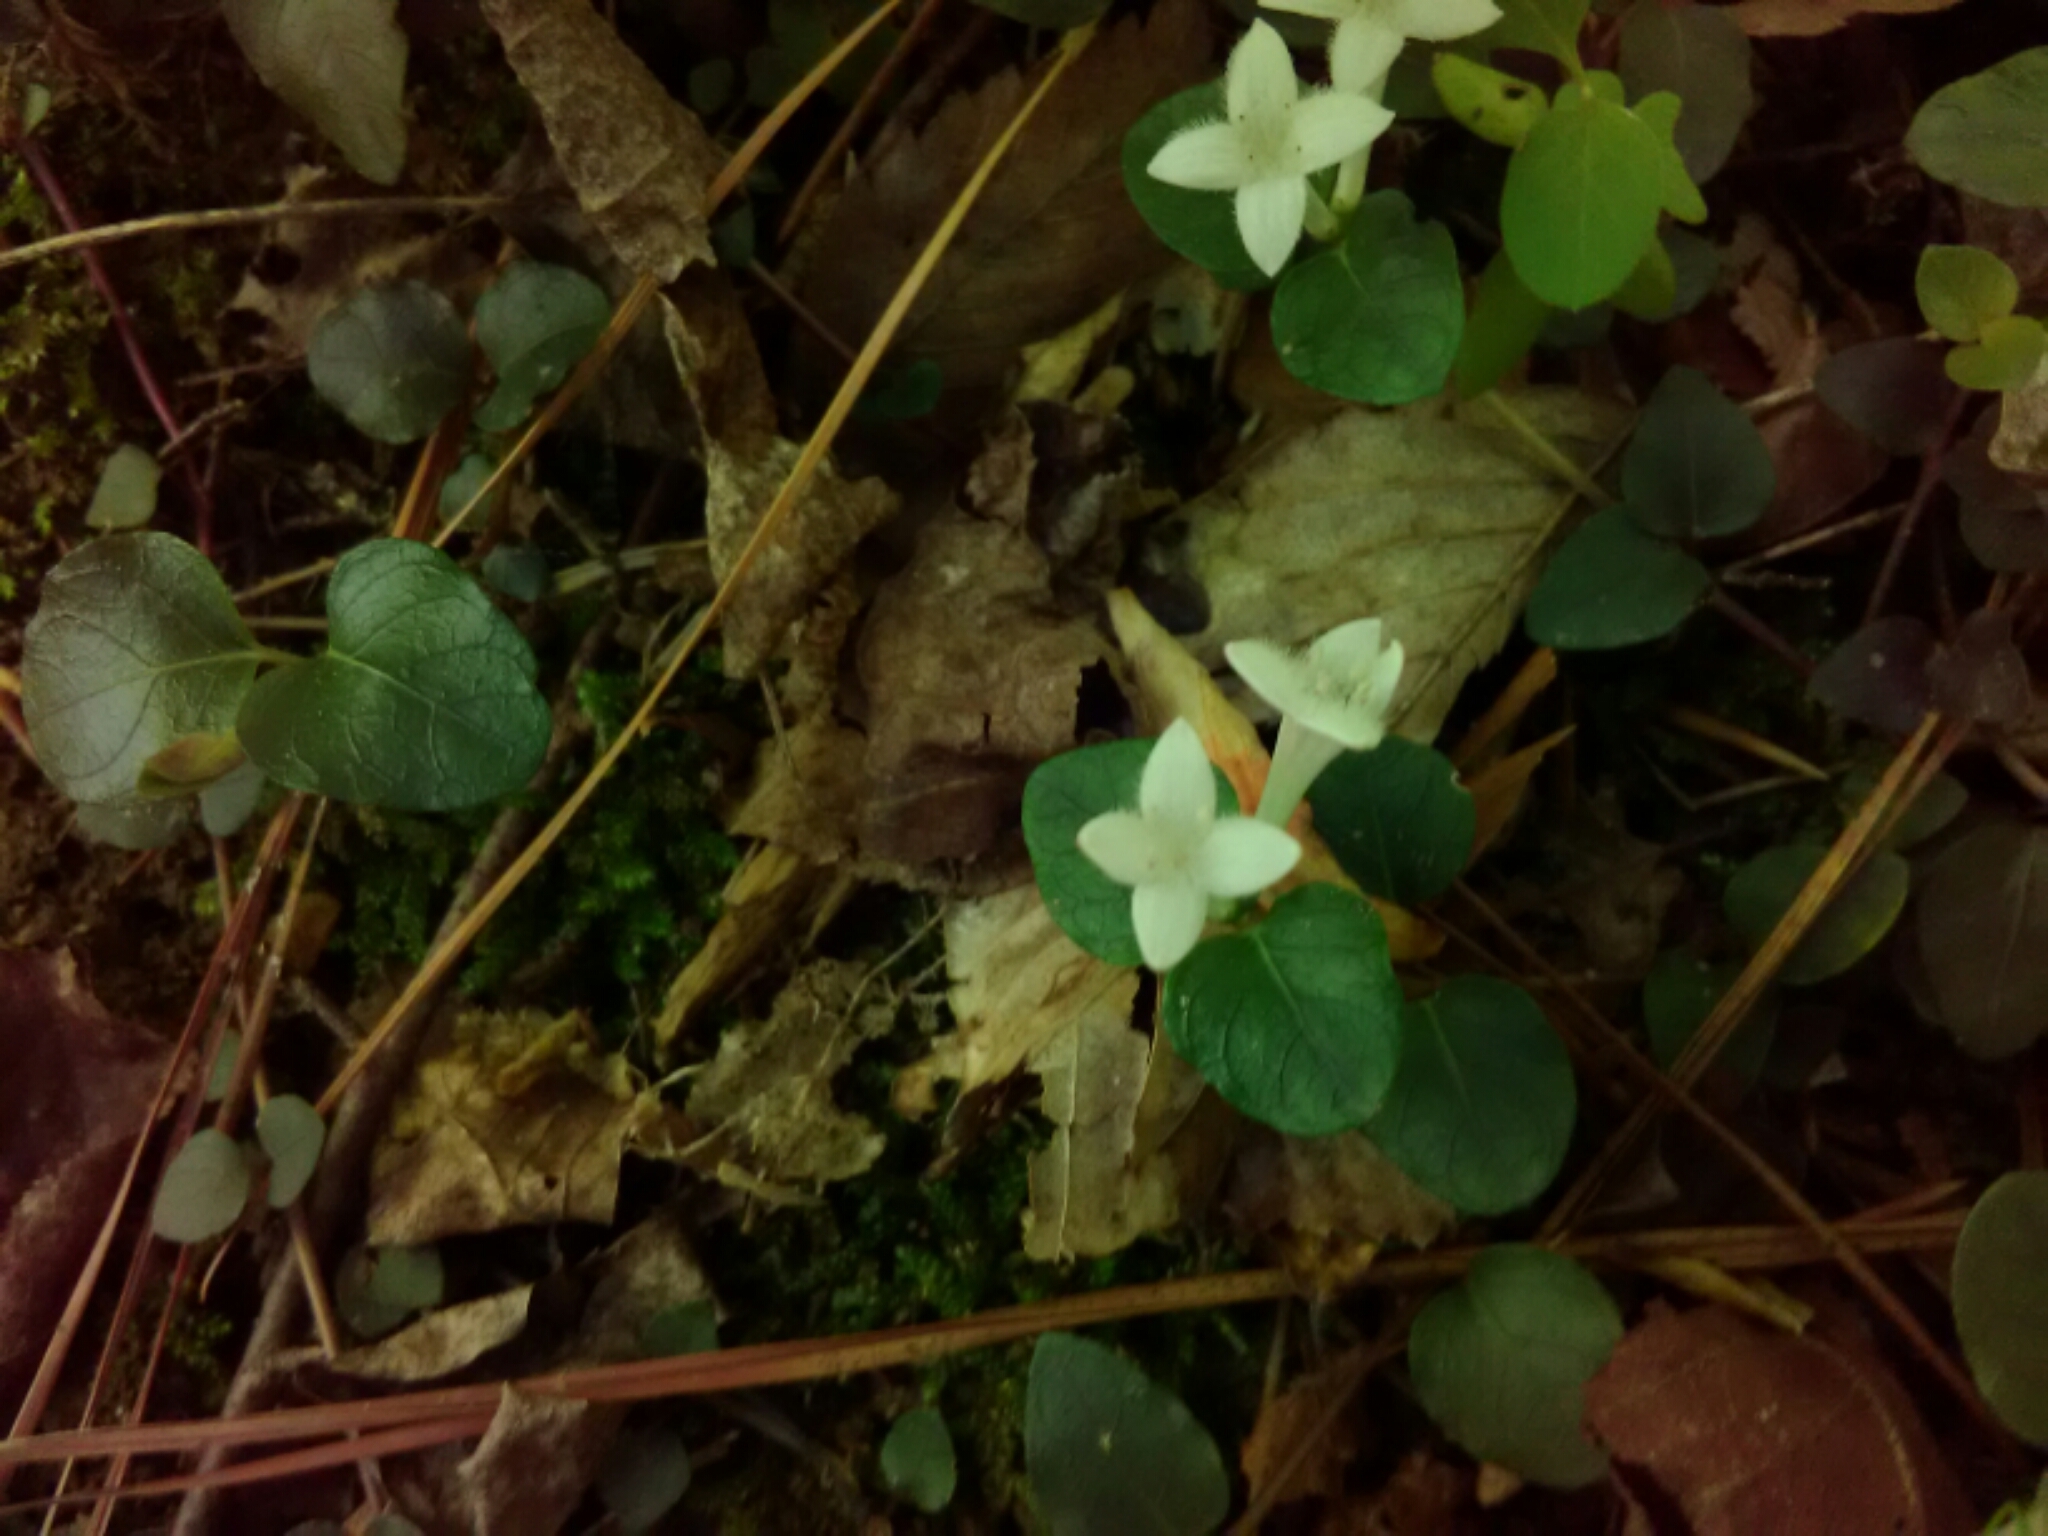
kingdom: Plantae
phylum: Tracheophyta
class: Magnoliopsida
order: Gentianales
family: Rubiaceae
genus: Mitchella
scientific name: Mitchella repens
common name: Partridge-berry
